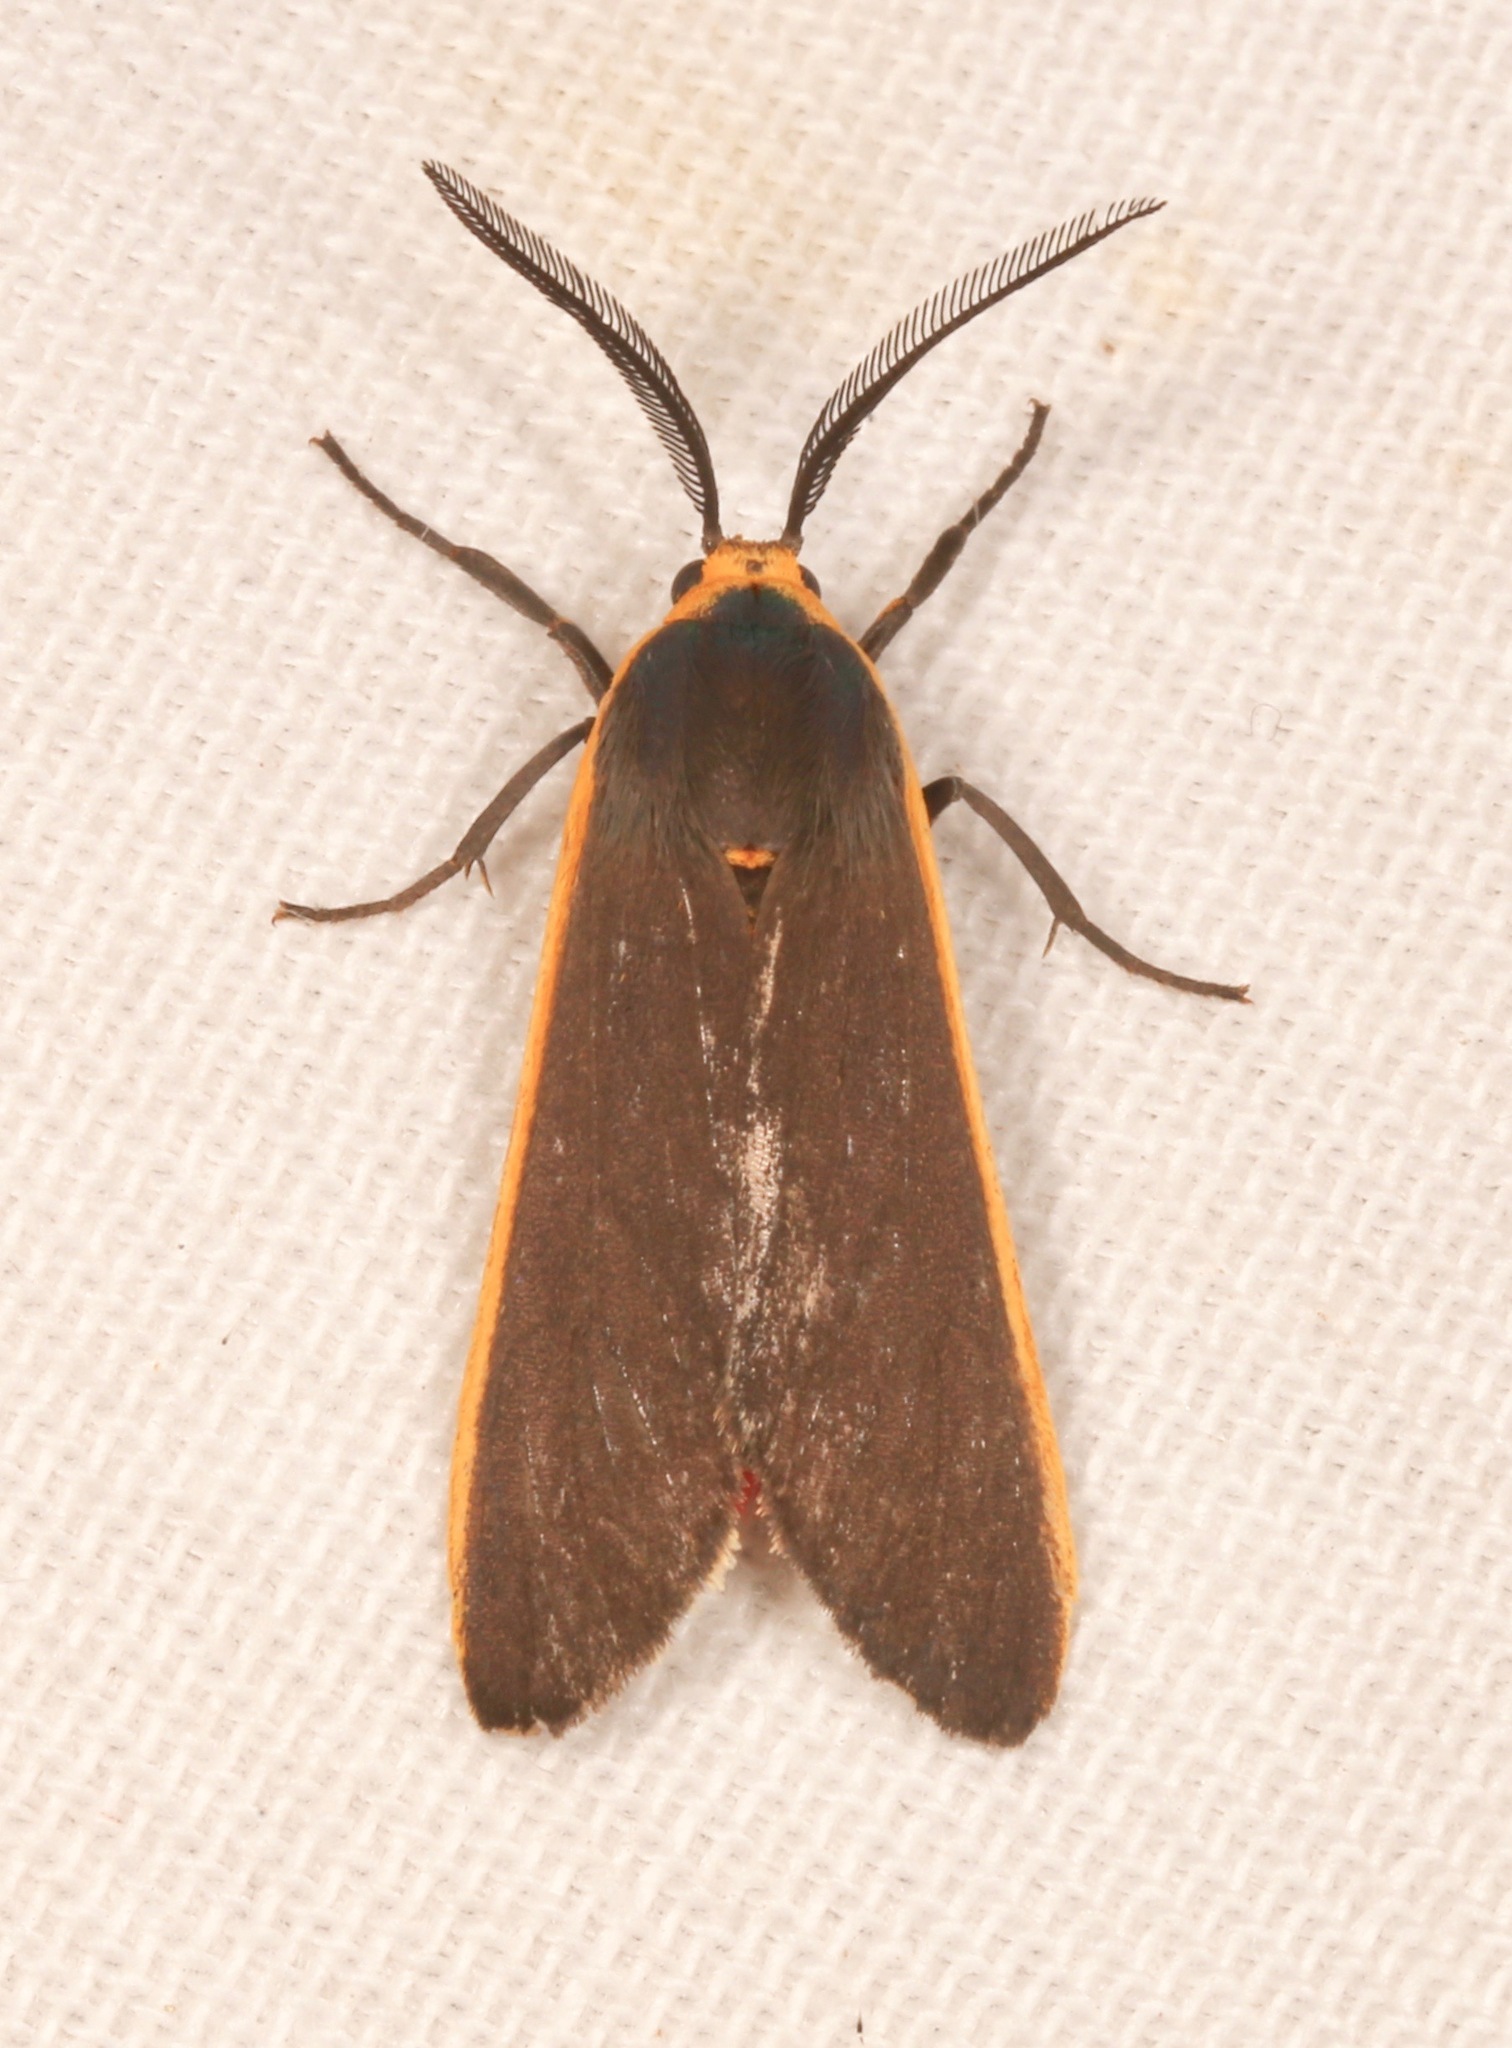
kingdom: Animalia
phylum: Arthropoda
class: Insecta
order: Lepidoptera
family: Erebidae
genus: Euchaetes
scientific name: Euchaetes antica
